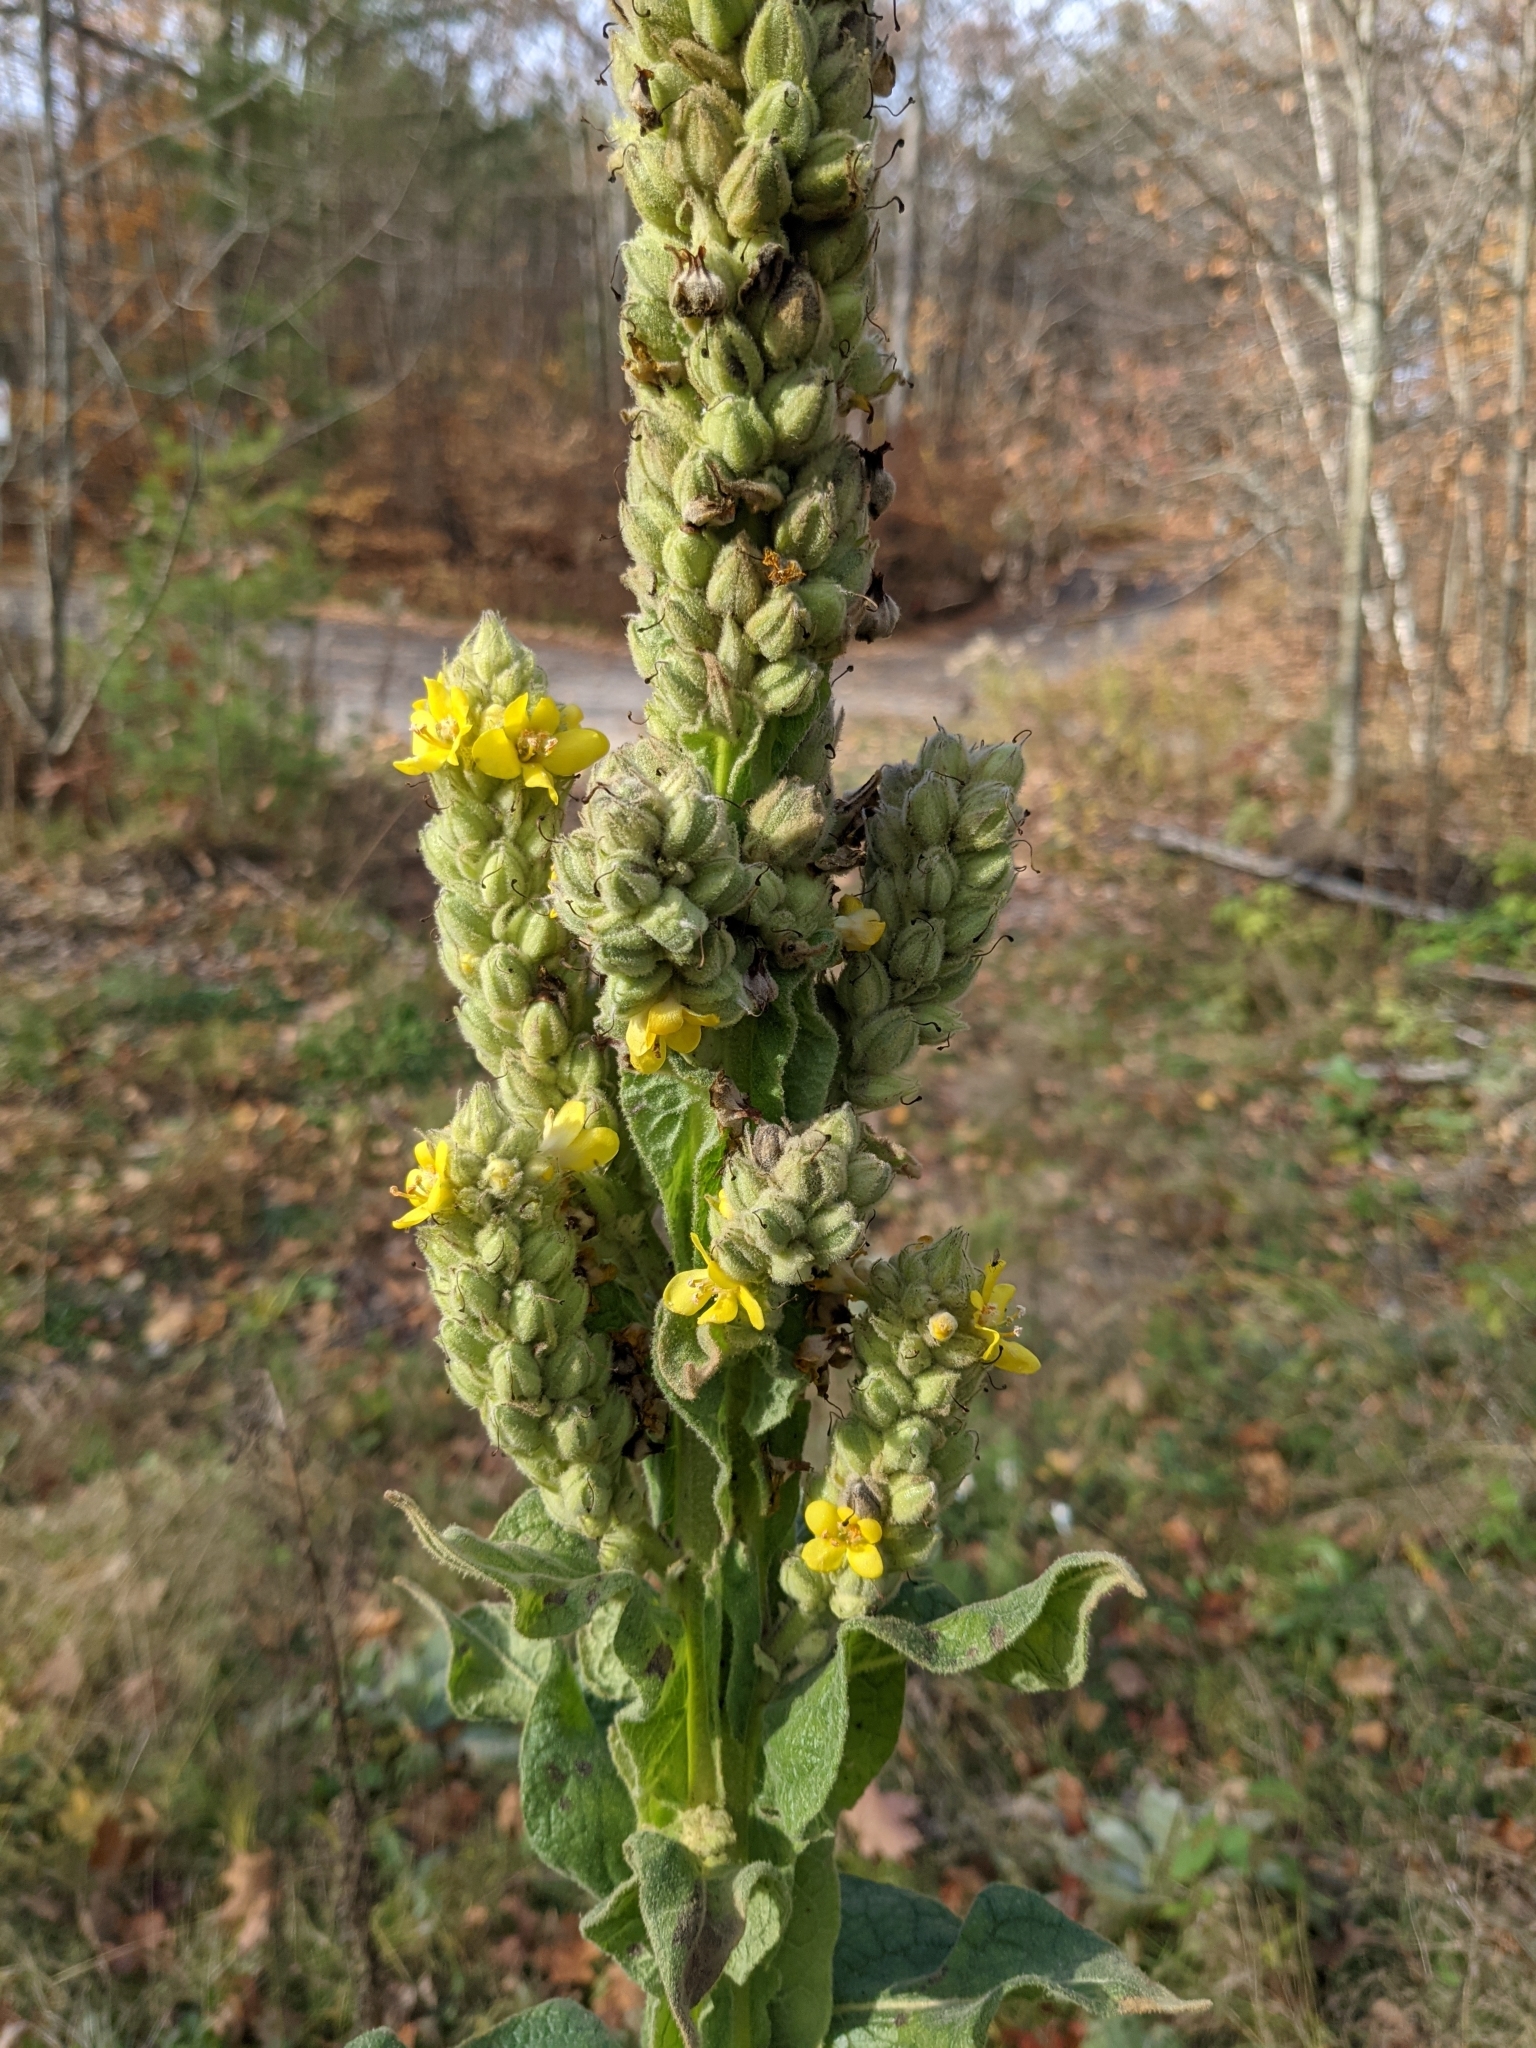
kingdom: Plantae
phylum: Tracheophyta
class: Magnoliopsida
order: Lamiales
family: Scrophulariaceae
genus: Verbascum
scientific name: Verbascum thapsus
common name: Common mullein
